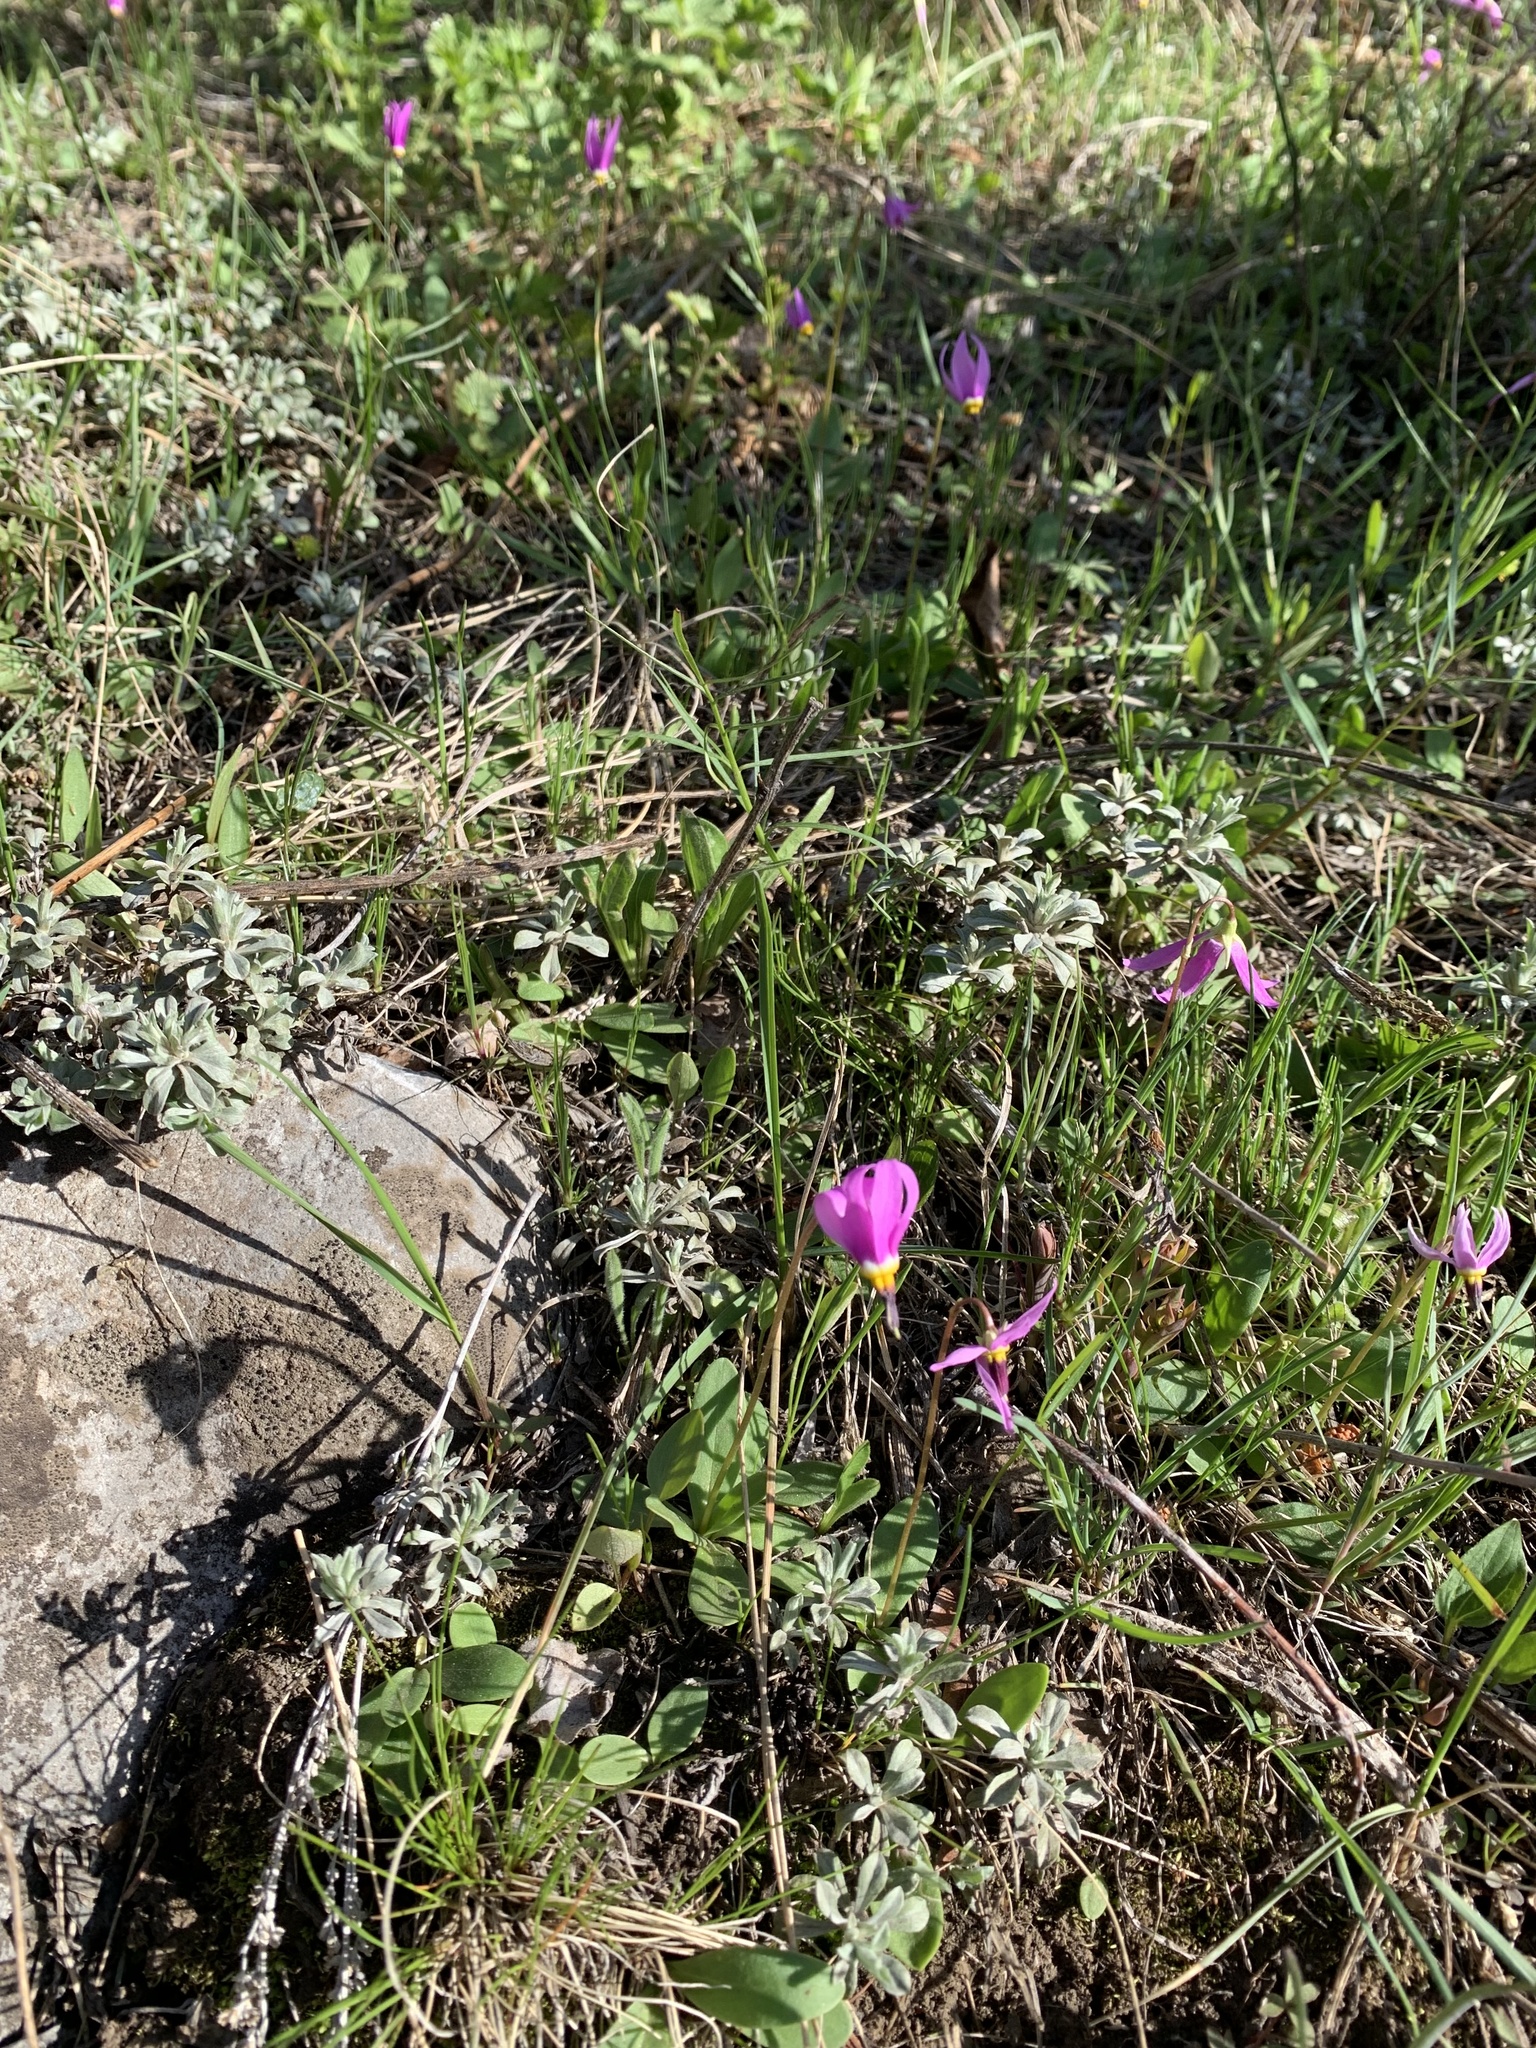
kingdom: Plantae
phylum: Tracheophyta
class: Magnoliopsida
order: Ericales
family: Primulaceae
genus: Dodecatheon
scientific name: Dodecatheon conjugens
